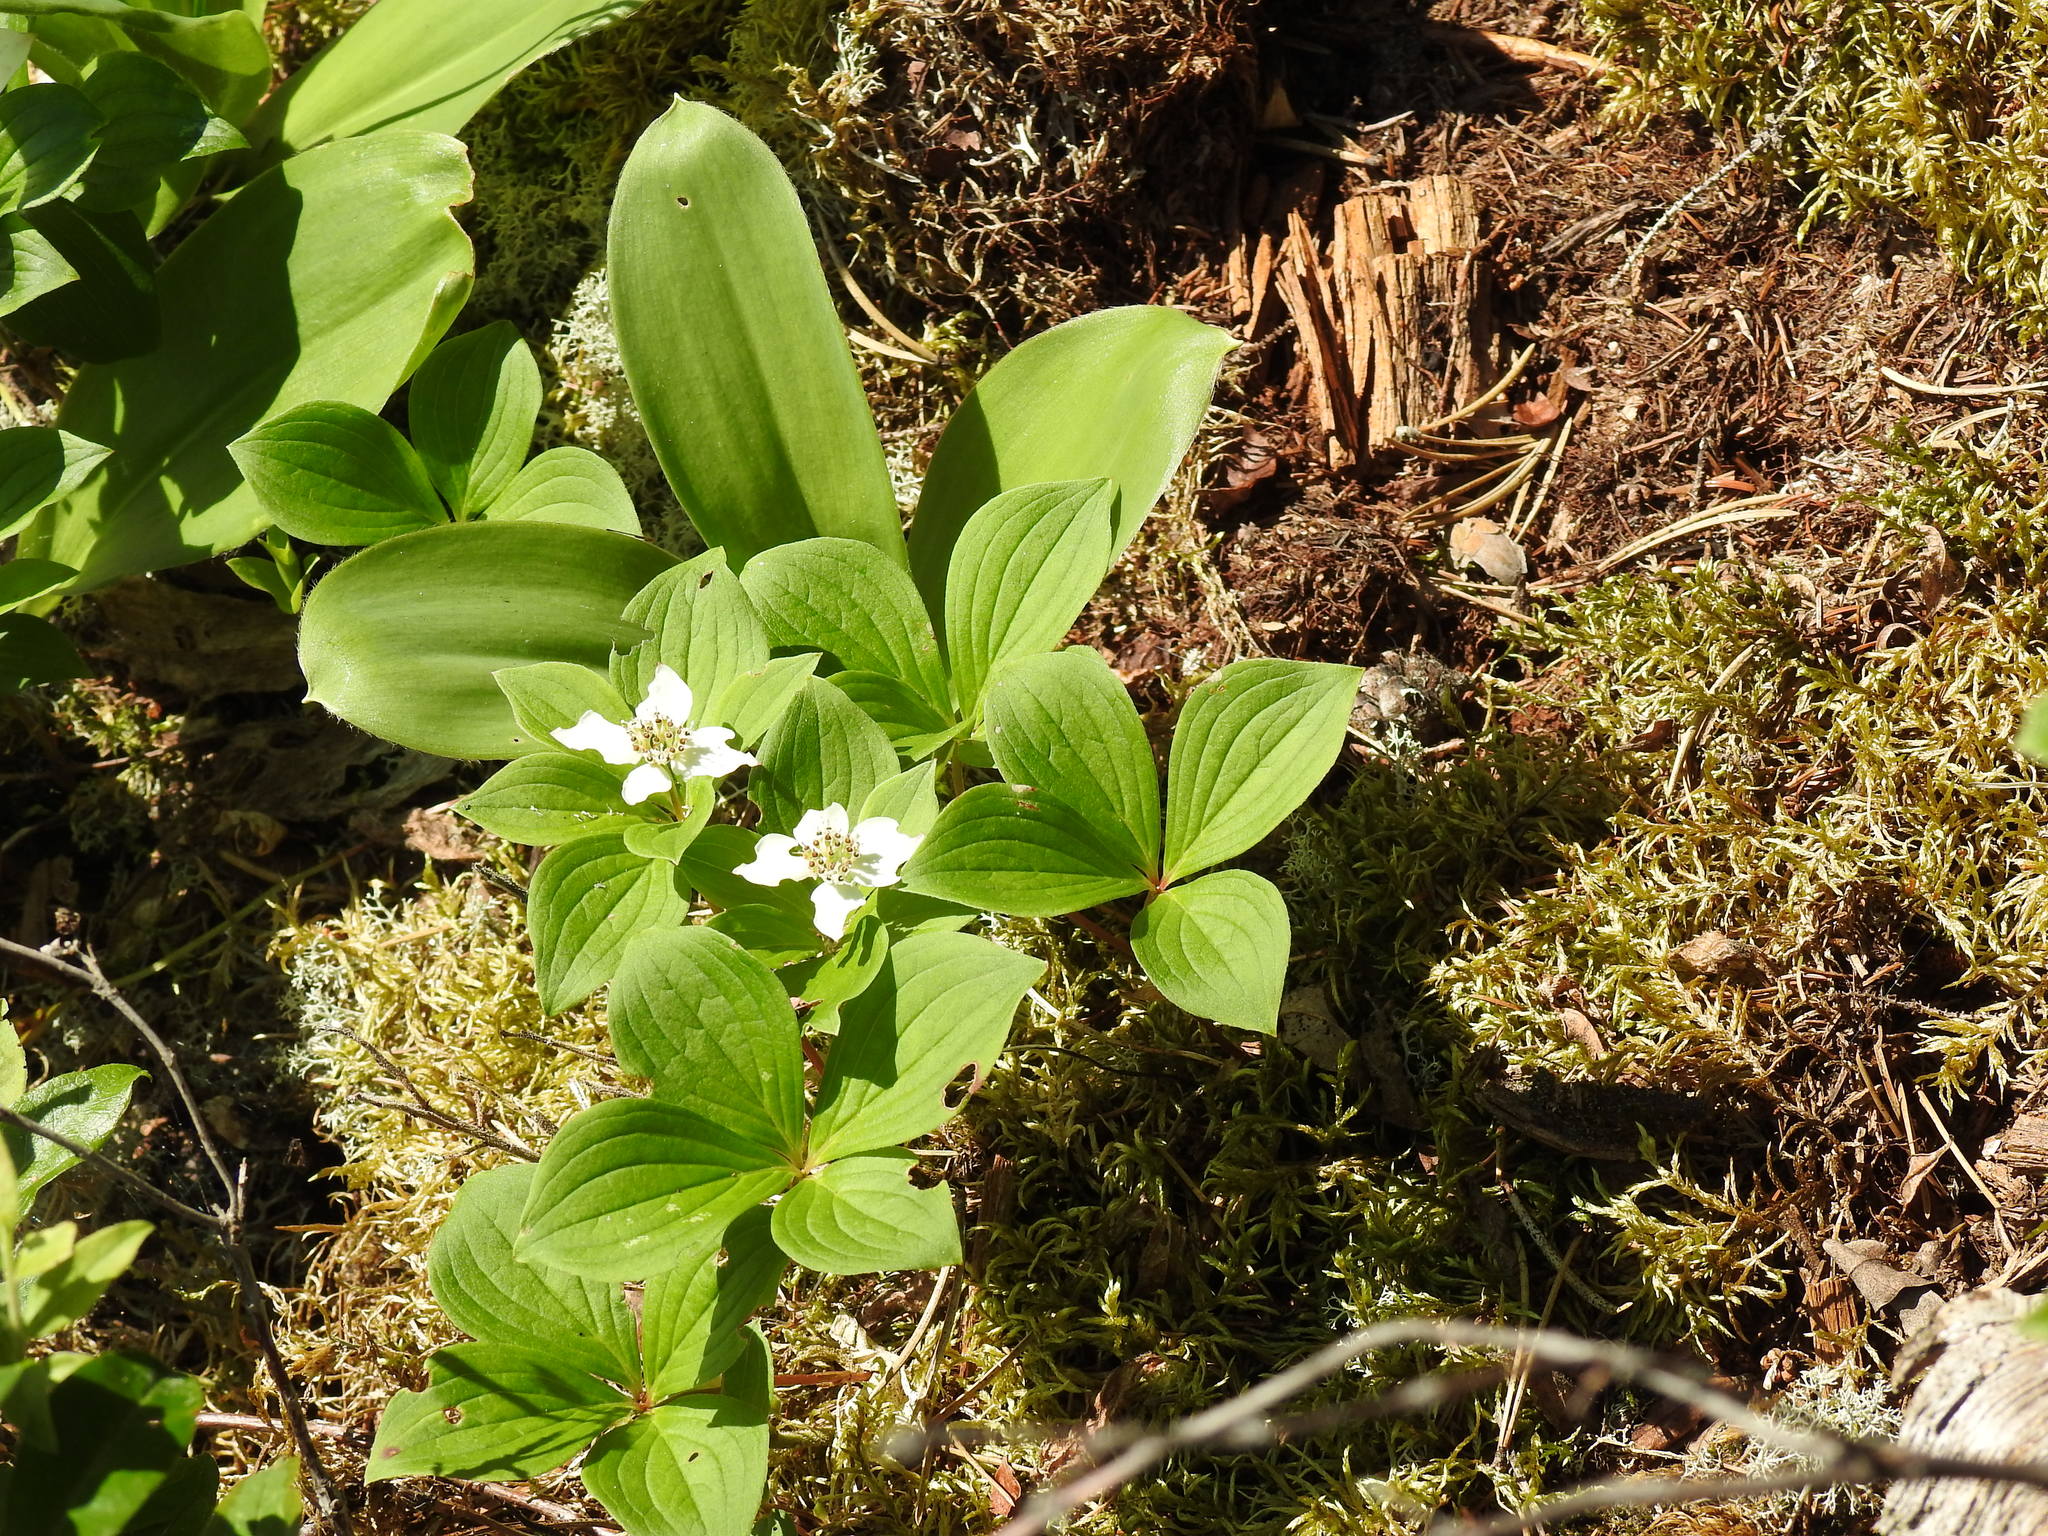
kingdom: Plantae
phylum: Tracheophyta
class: Magnoliopsida
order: Cornales
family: Cornaceae
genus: Cornus
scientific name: Cornus canadensis
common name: Creeping dogwood
